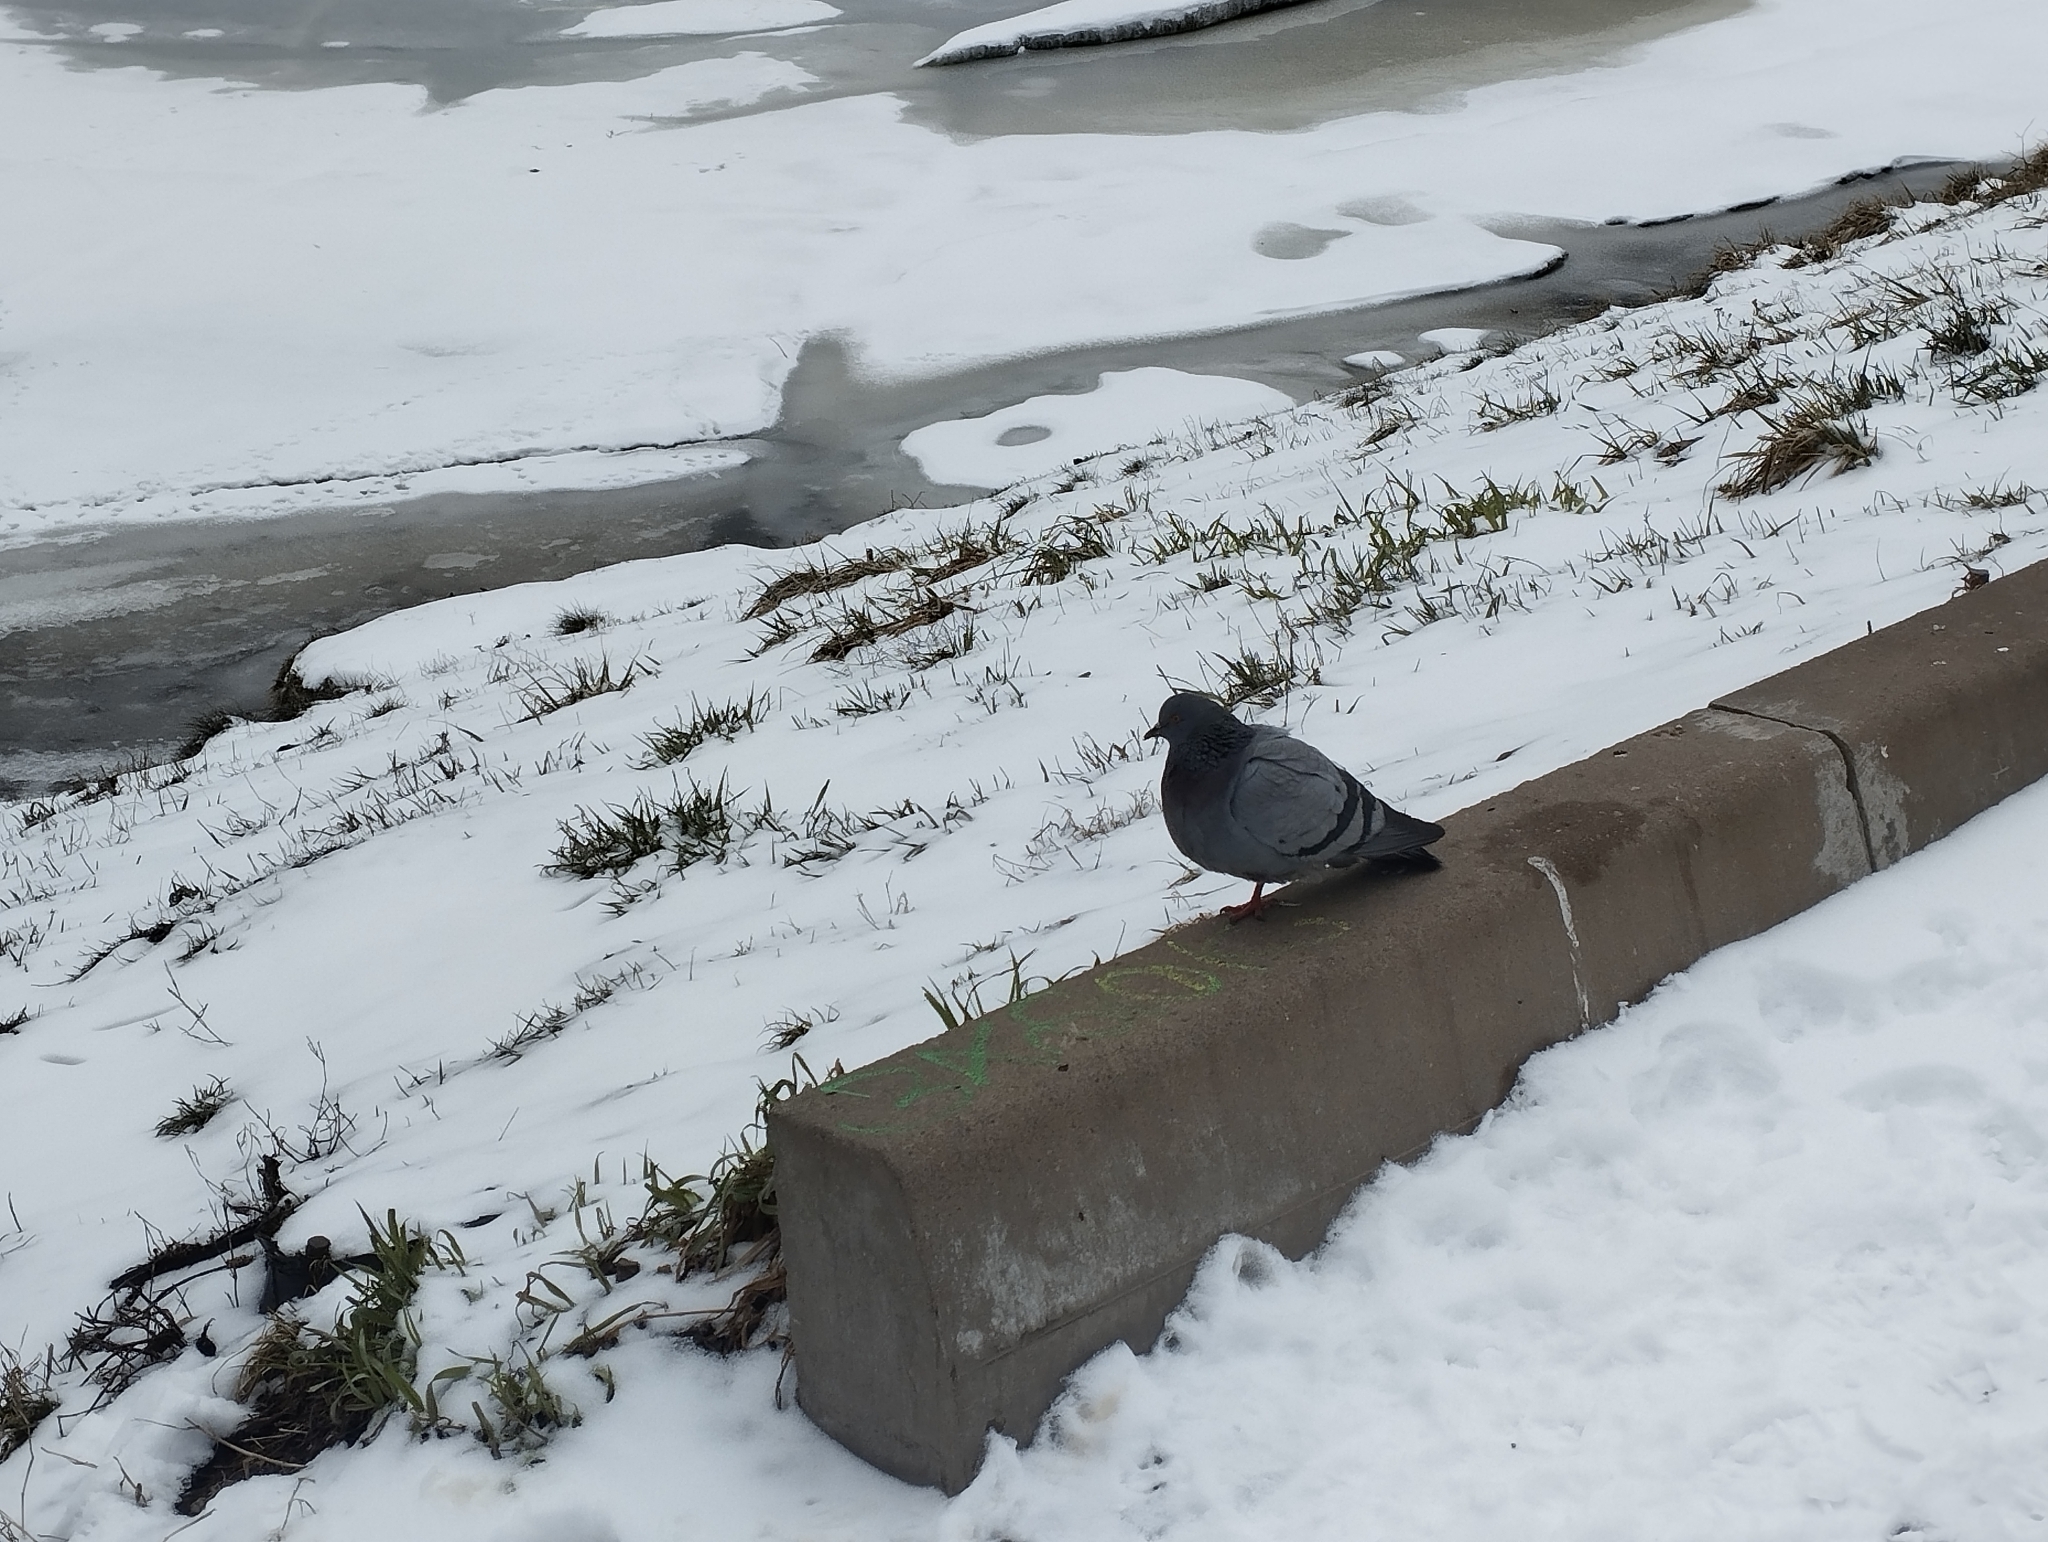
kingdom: Animalia
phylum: Chordata
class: Aves
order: Columbiformes
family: Columbidae
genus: Columba
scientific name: Columba livia
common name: Rock pigeon
